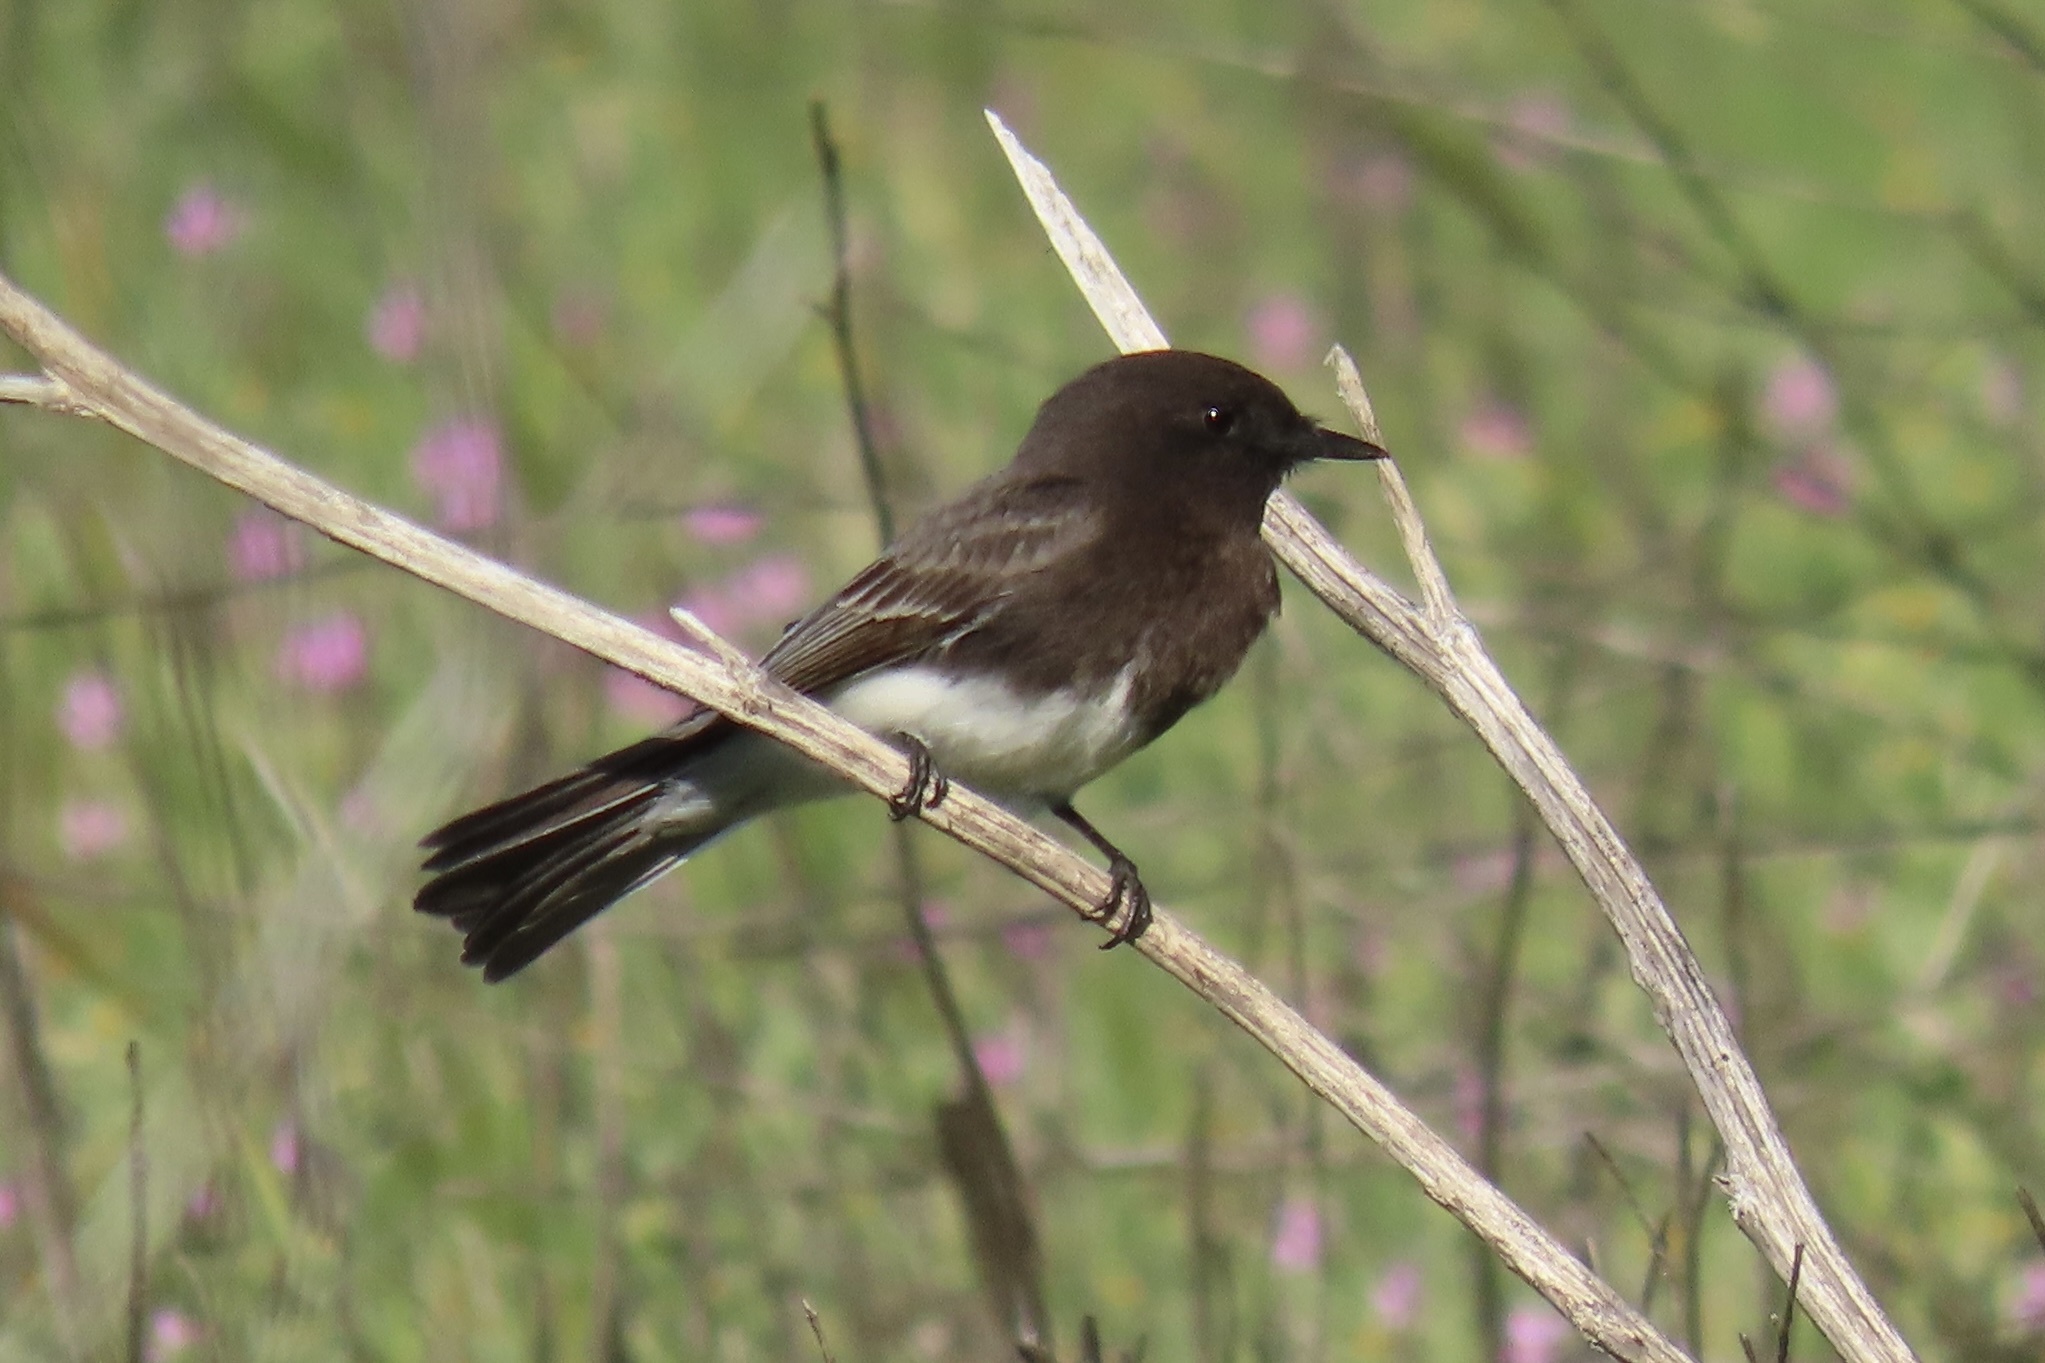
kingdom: Animalia
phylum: Chordata
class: Aves
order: Passeriformes
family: Tyrannidae
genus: Sayornis
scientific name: Sayornis nigricans
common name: Black phoebe
